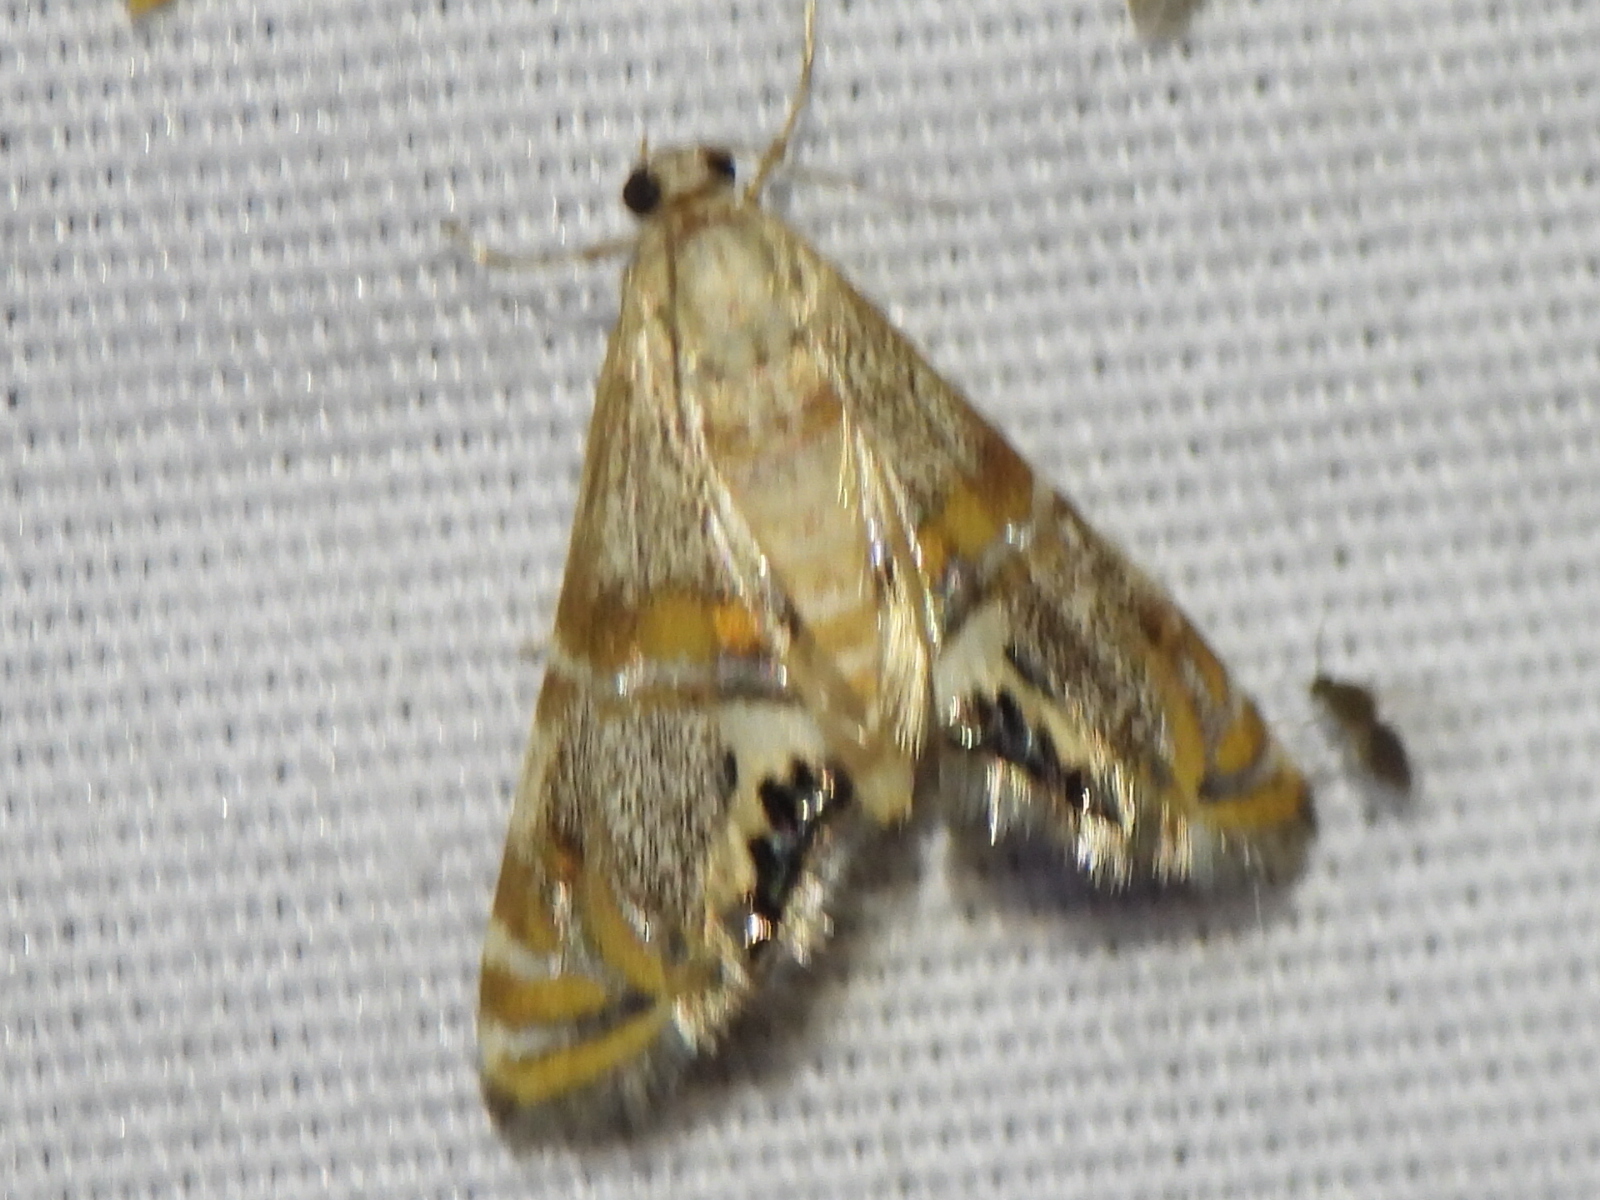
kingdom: Animalia
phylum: Arthropoda
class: Insecta
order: Lepidoptera
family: Crambidae
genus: Petrophila
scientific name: Petrophila bifascialis
